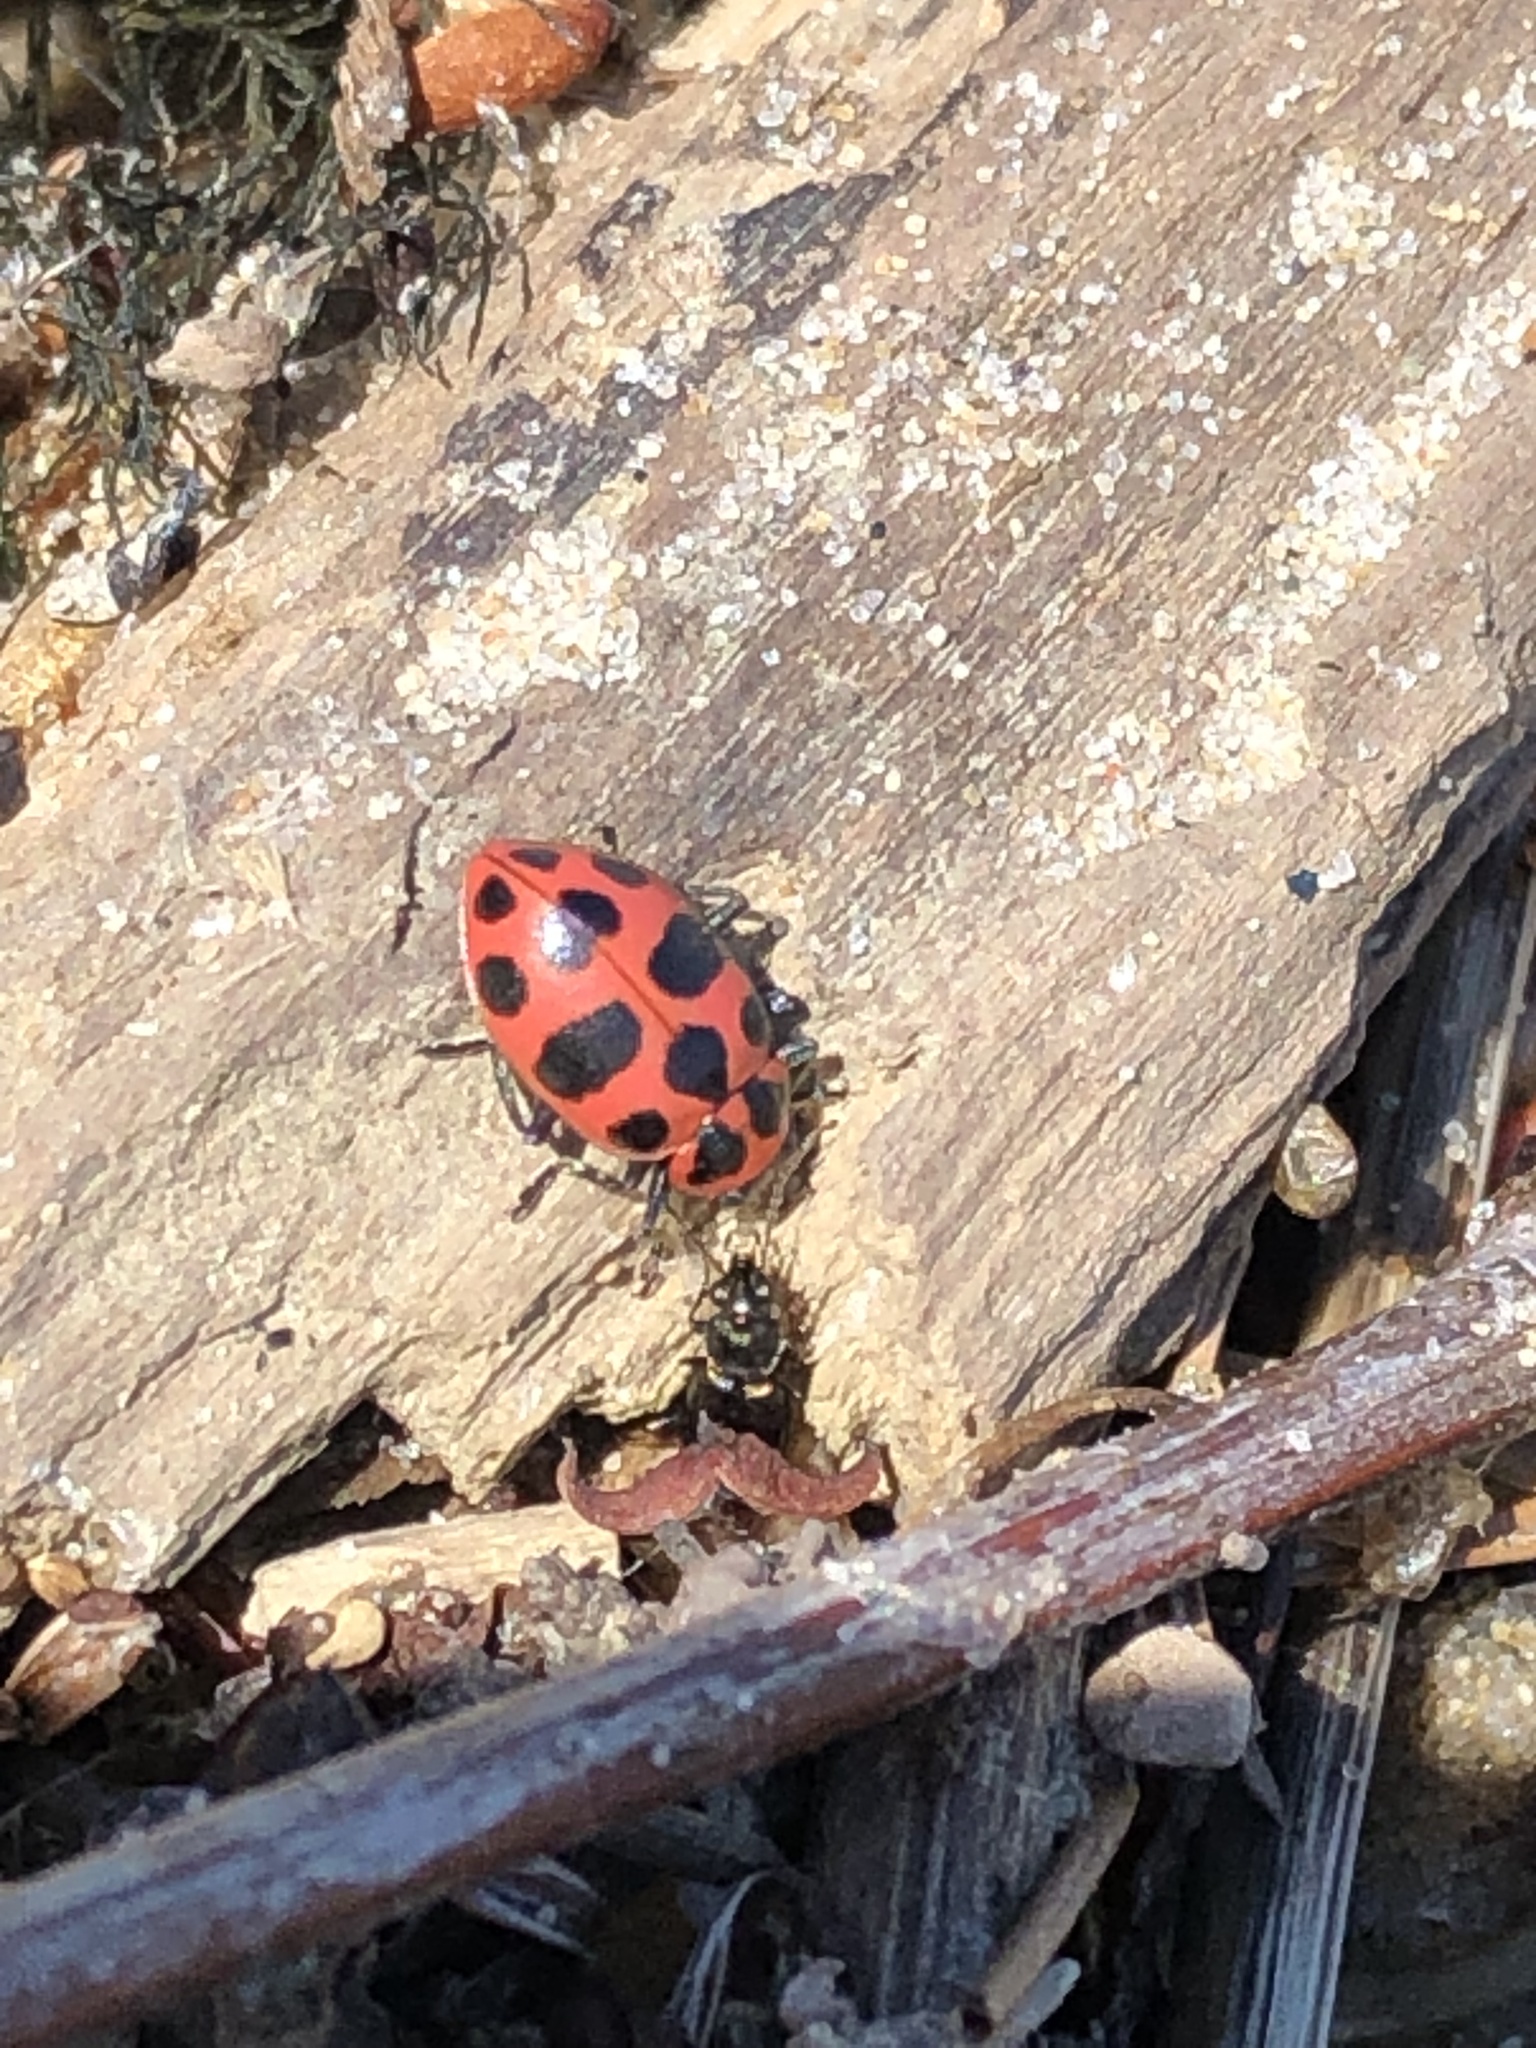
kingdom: Animalia
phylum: Arthropoda
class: Insecta
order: Coleoptera
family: Coccinellidae
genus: Coleomegilla
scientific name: Coleomegilla maculata
